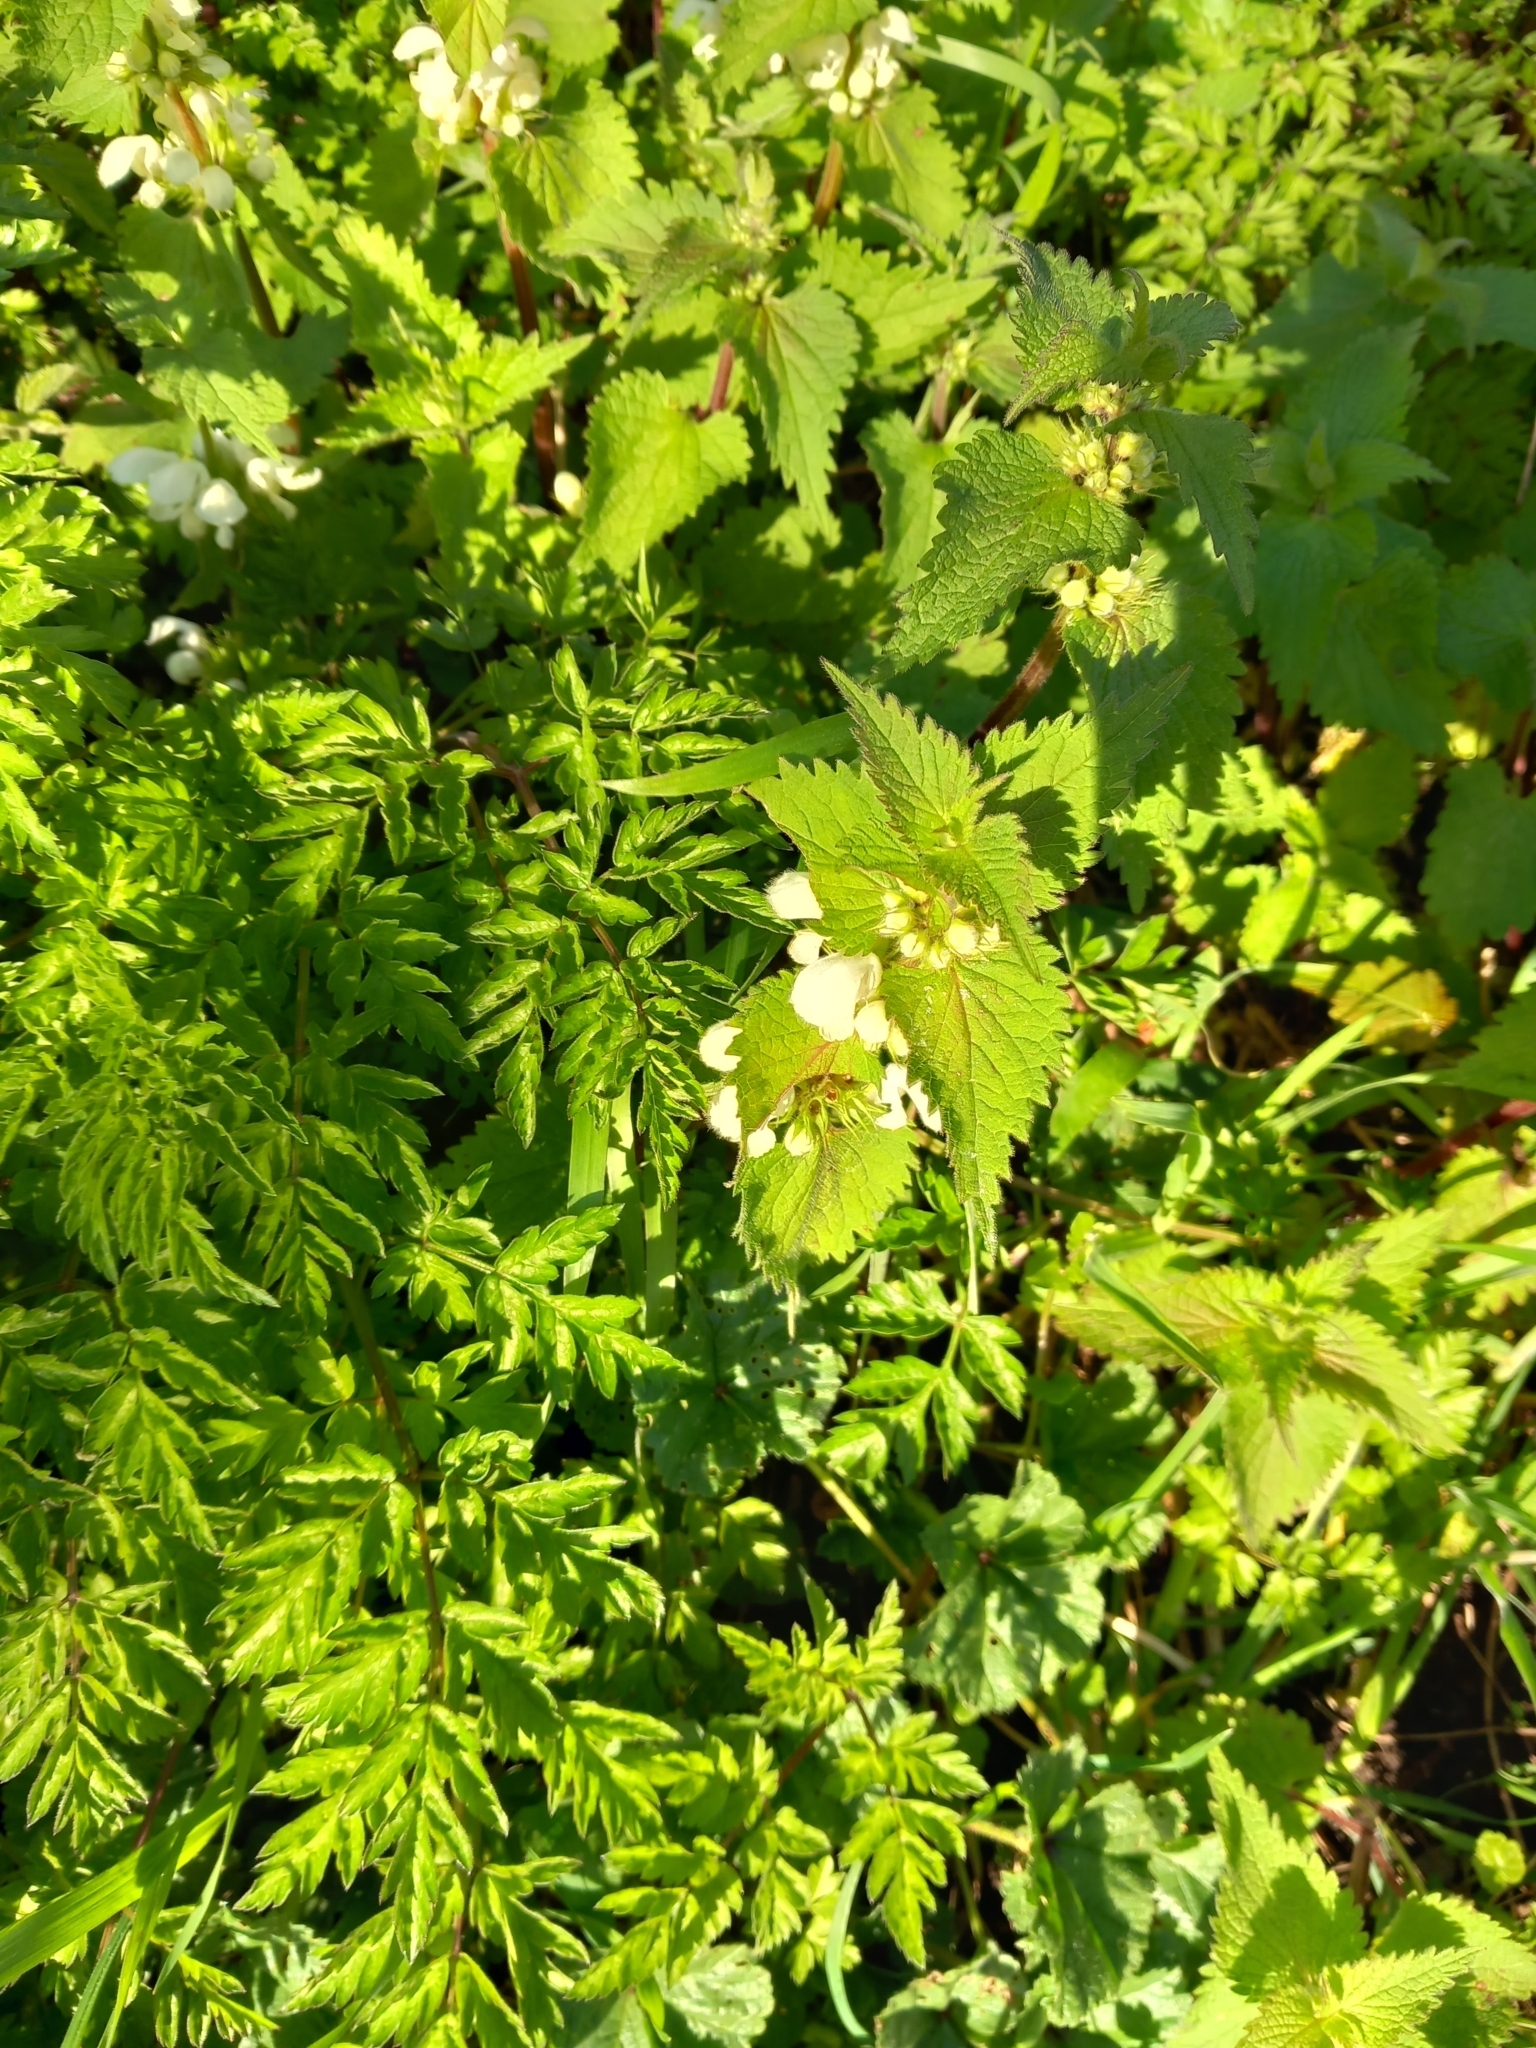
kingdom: Plantae
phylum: Tracheophyta
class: Magnoliopsida
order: Lamiales
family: Lamiaceae
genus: Lamium
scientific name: Lamium album
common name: White dead-nettle
